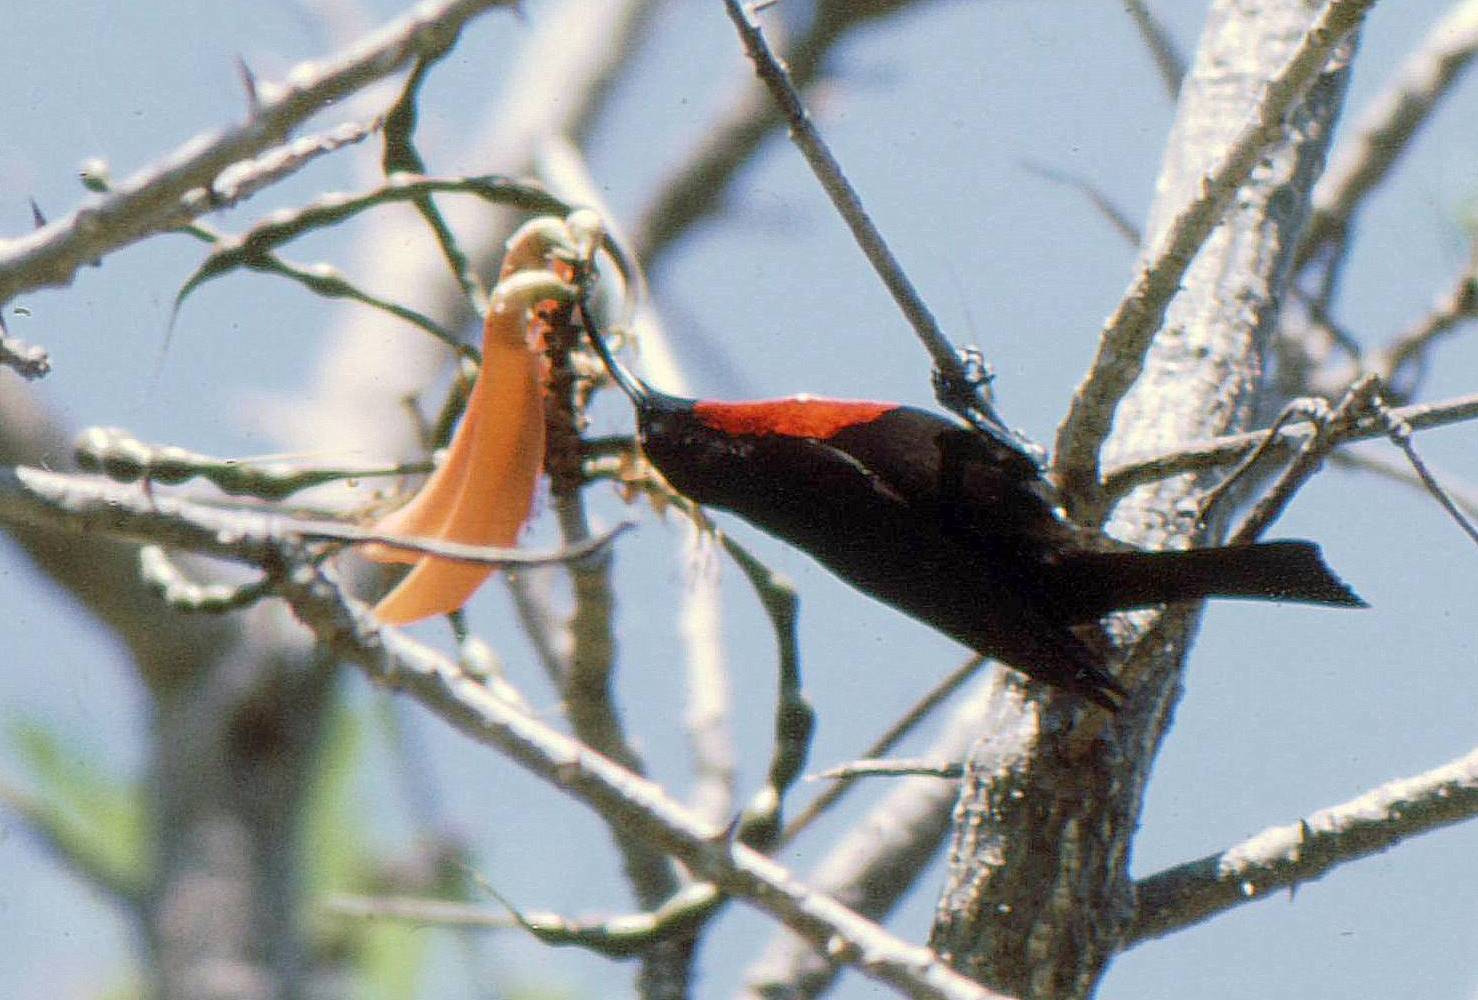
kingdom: Animalia
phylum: Chordata
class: Aves
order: Passeriformes
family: Nectariniidae
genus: Chalcomitra
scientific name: Chalcomitra senegalensis
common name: Scarlet-chested sunbird
